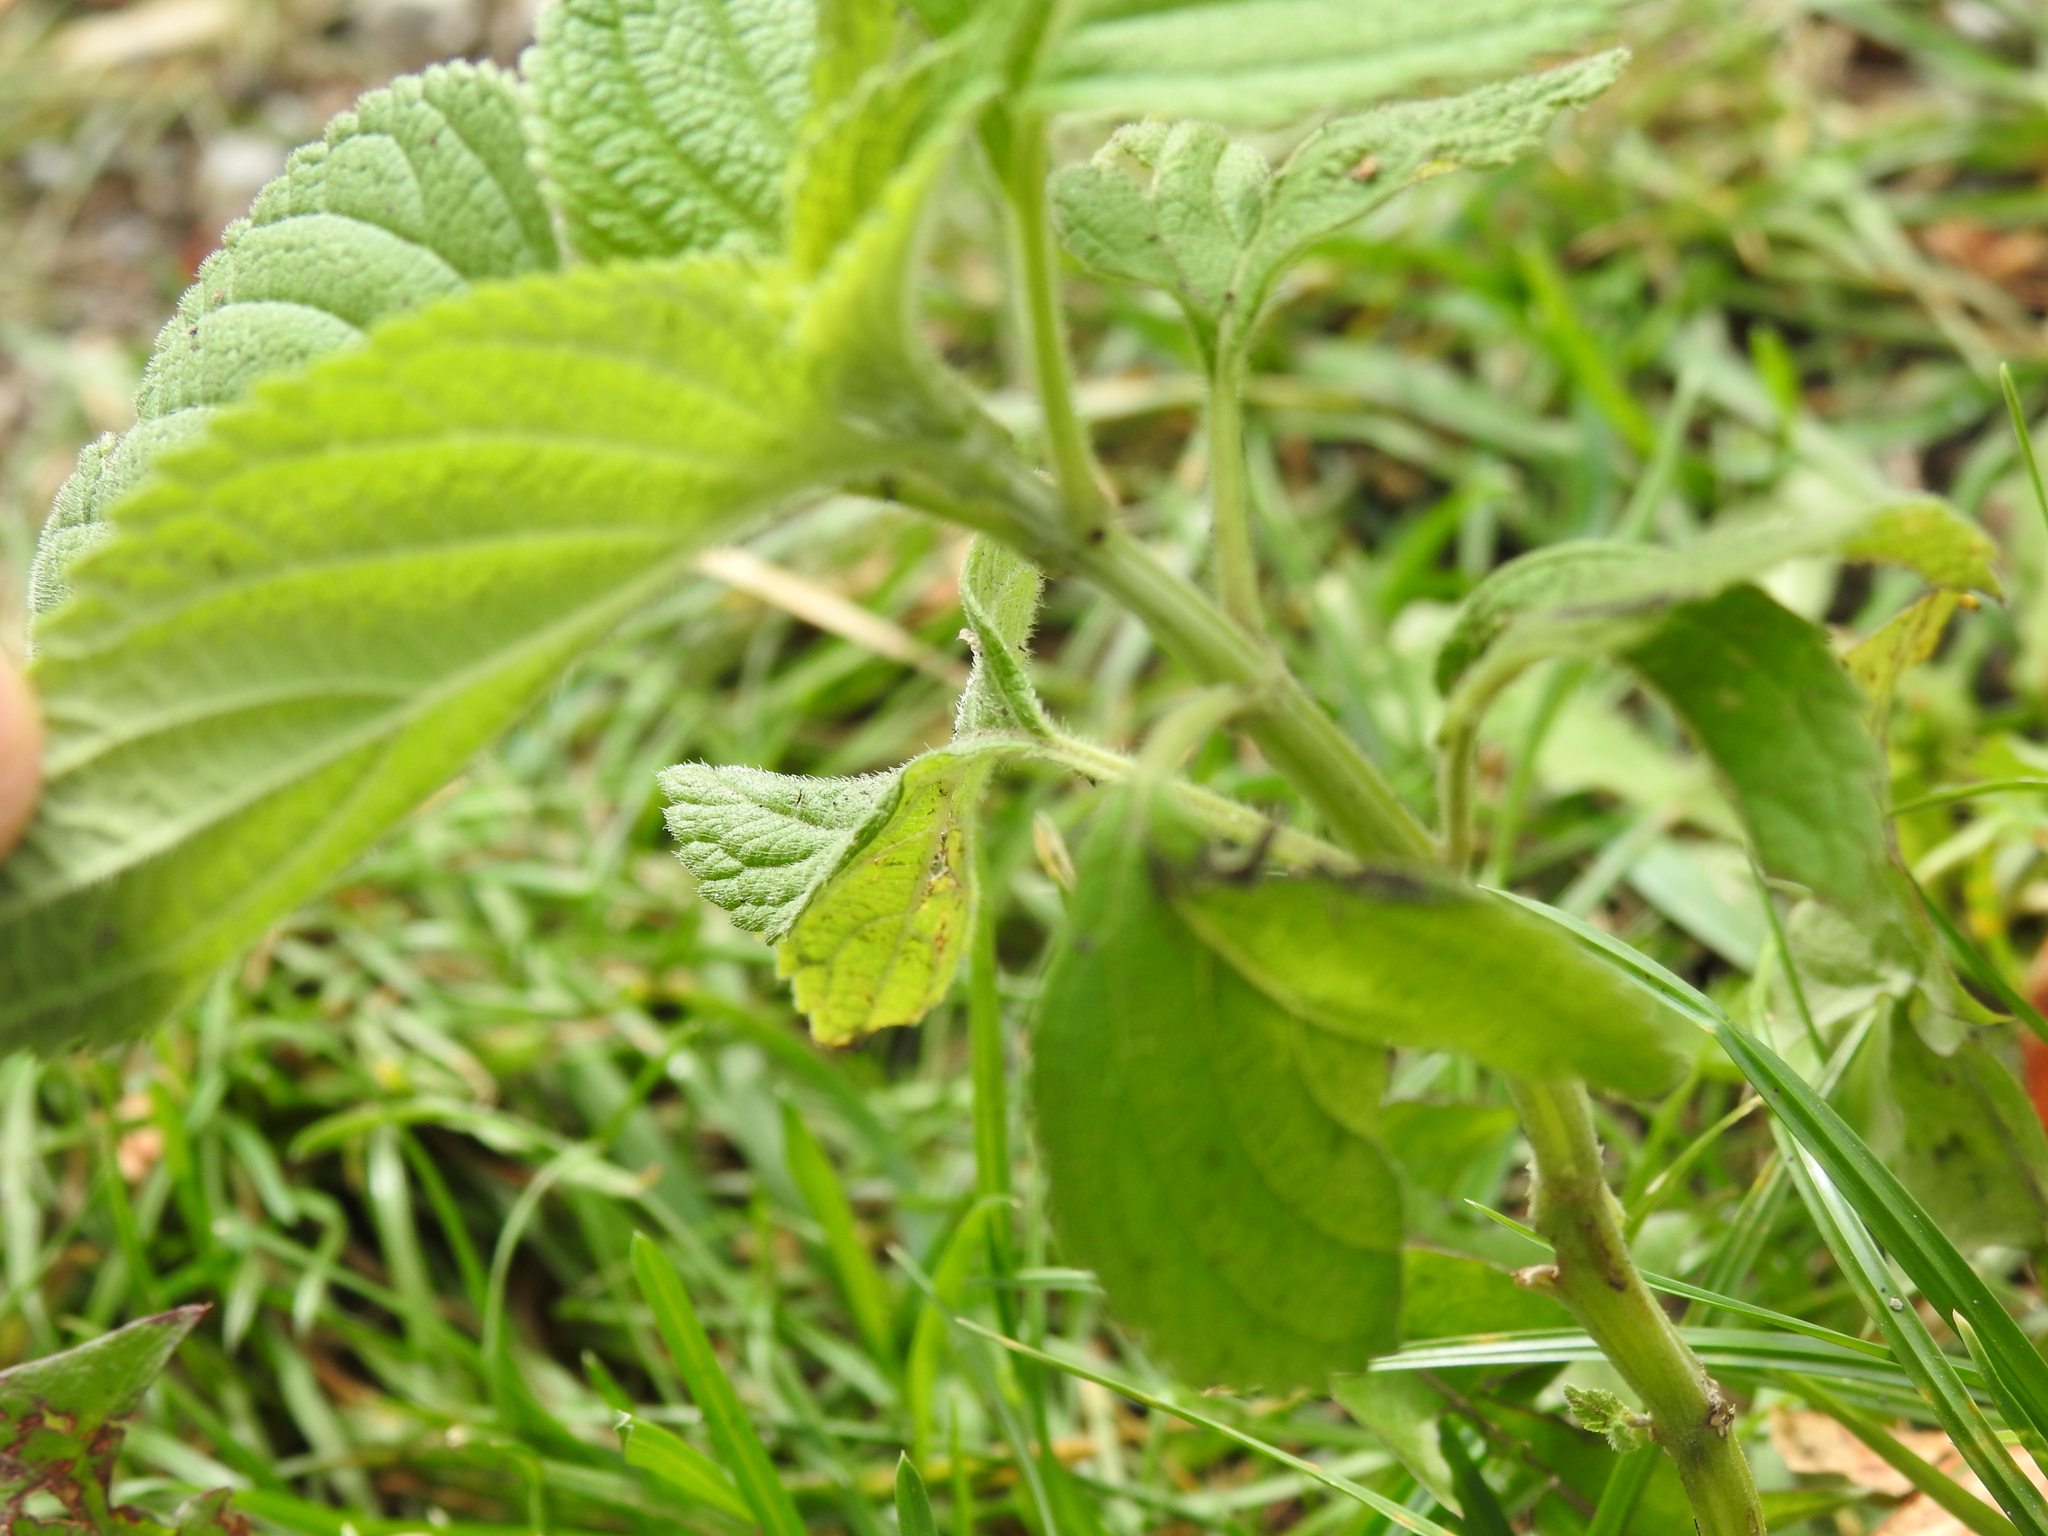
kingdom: Plantae
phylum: Tracheophyta
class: Magnoliopsida
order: Lamiales
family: Lamiaceae
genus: Salvia
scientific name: Salvia hispanica
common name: Chia
